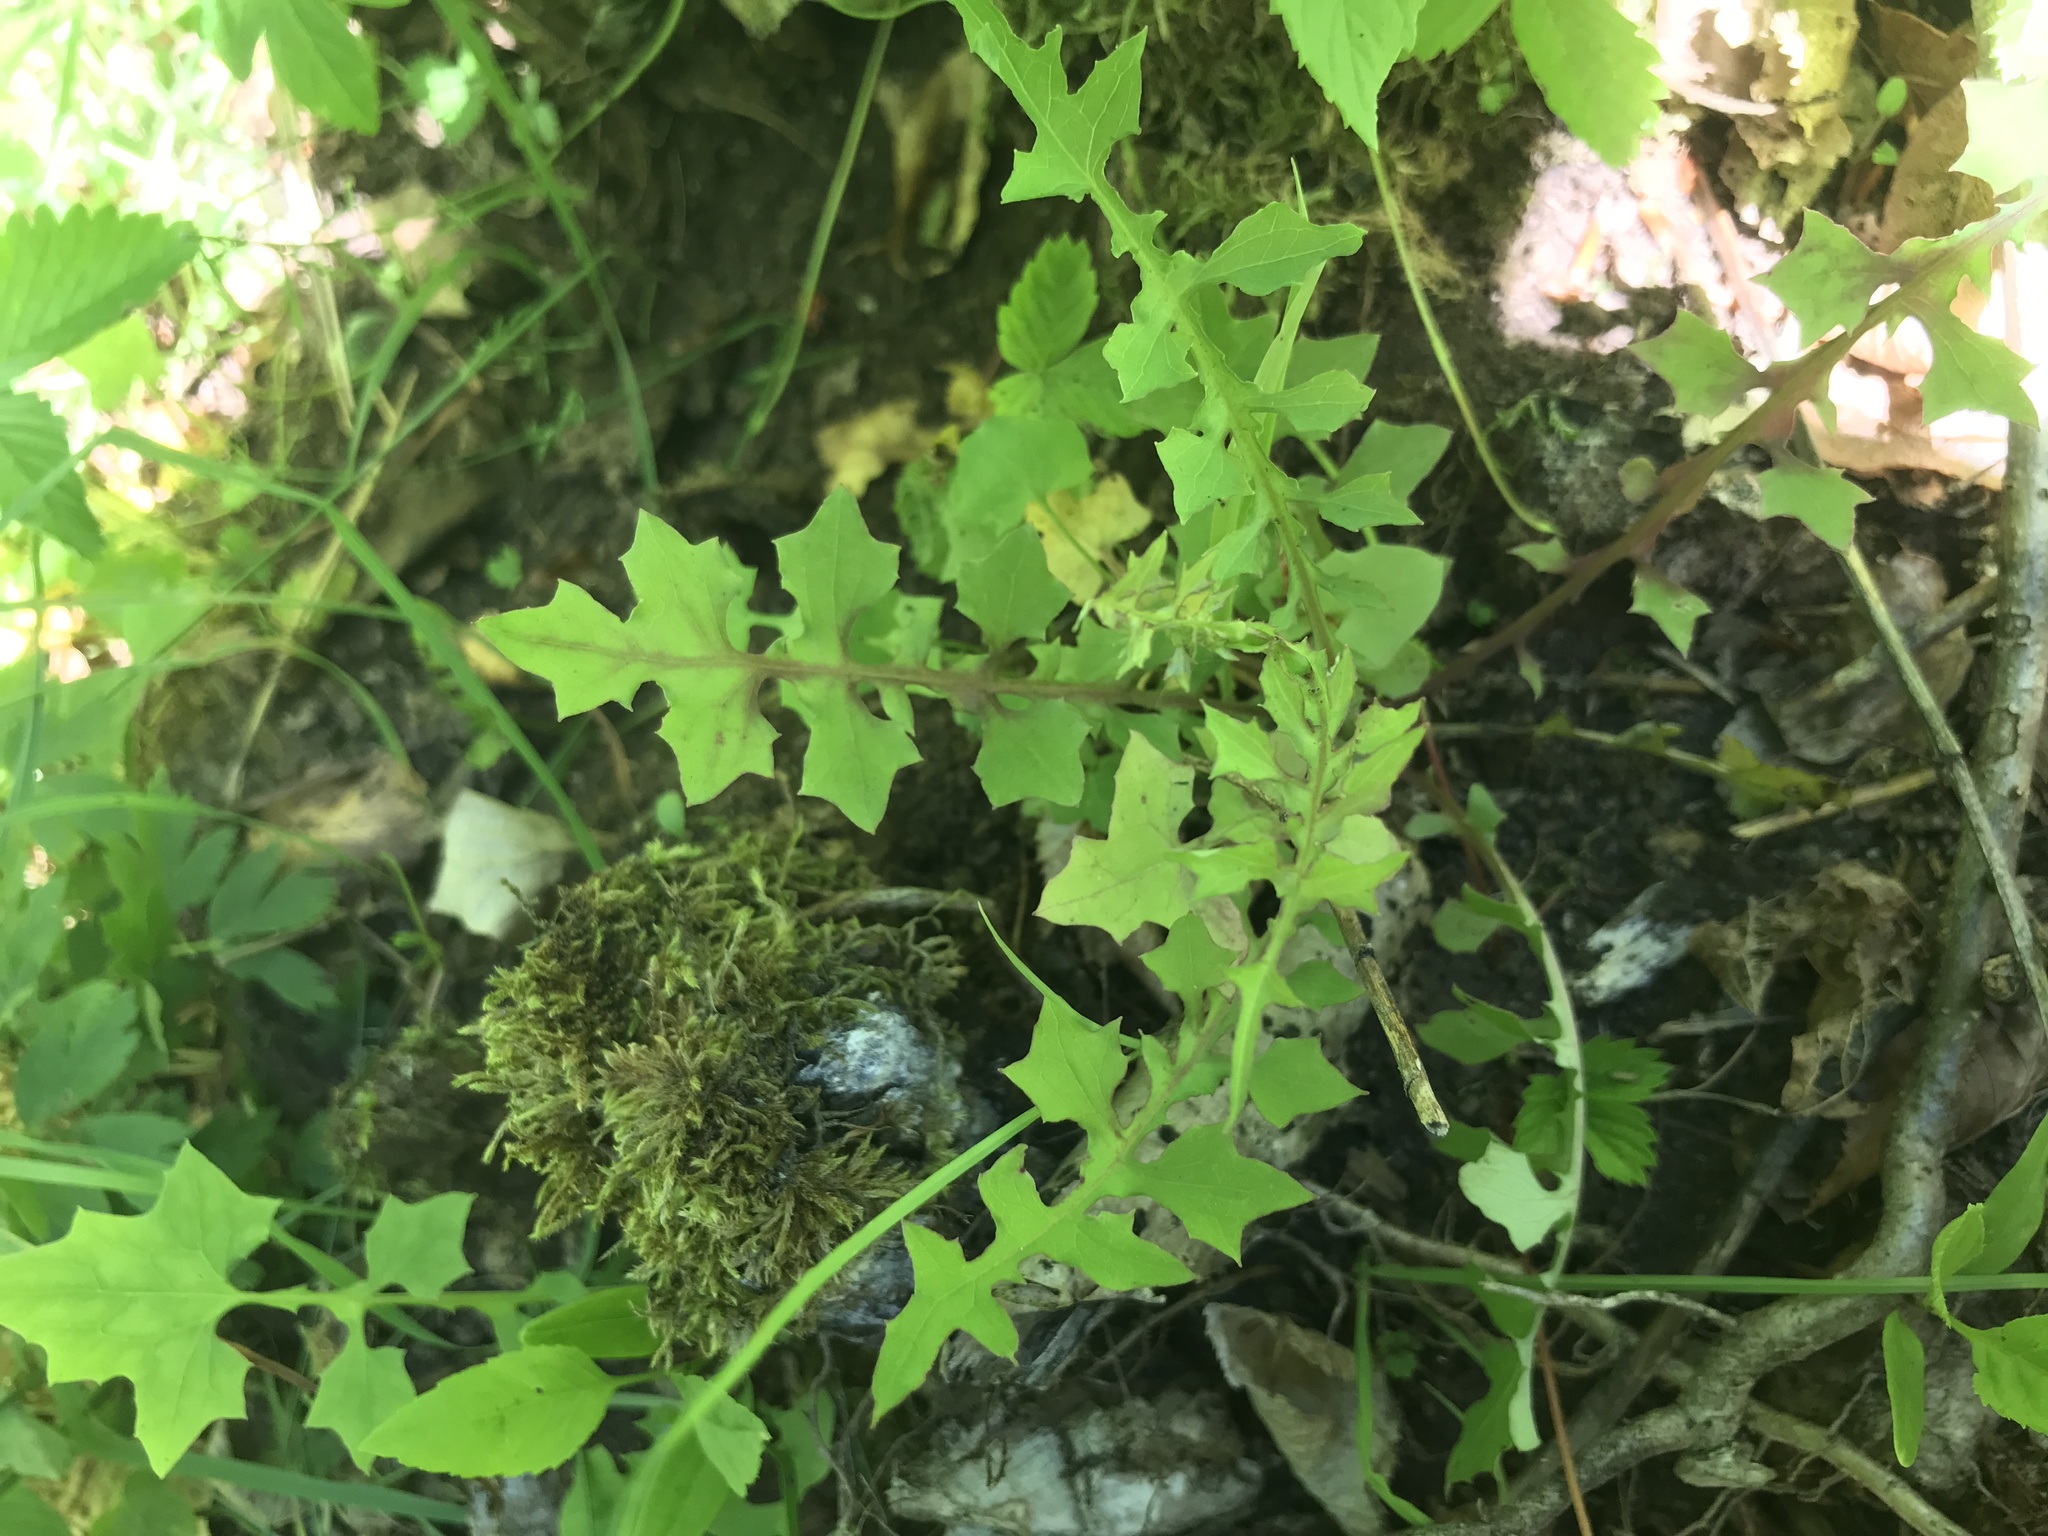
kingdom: Plantae
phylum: Tracheophyta
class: Magnoliopsida
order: Asterales
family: Asteraceae
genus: Mycelis
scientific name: Mycelis muralis
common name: Wall lettuce
